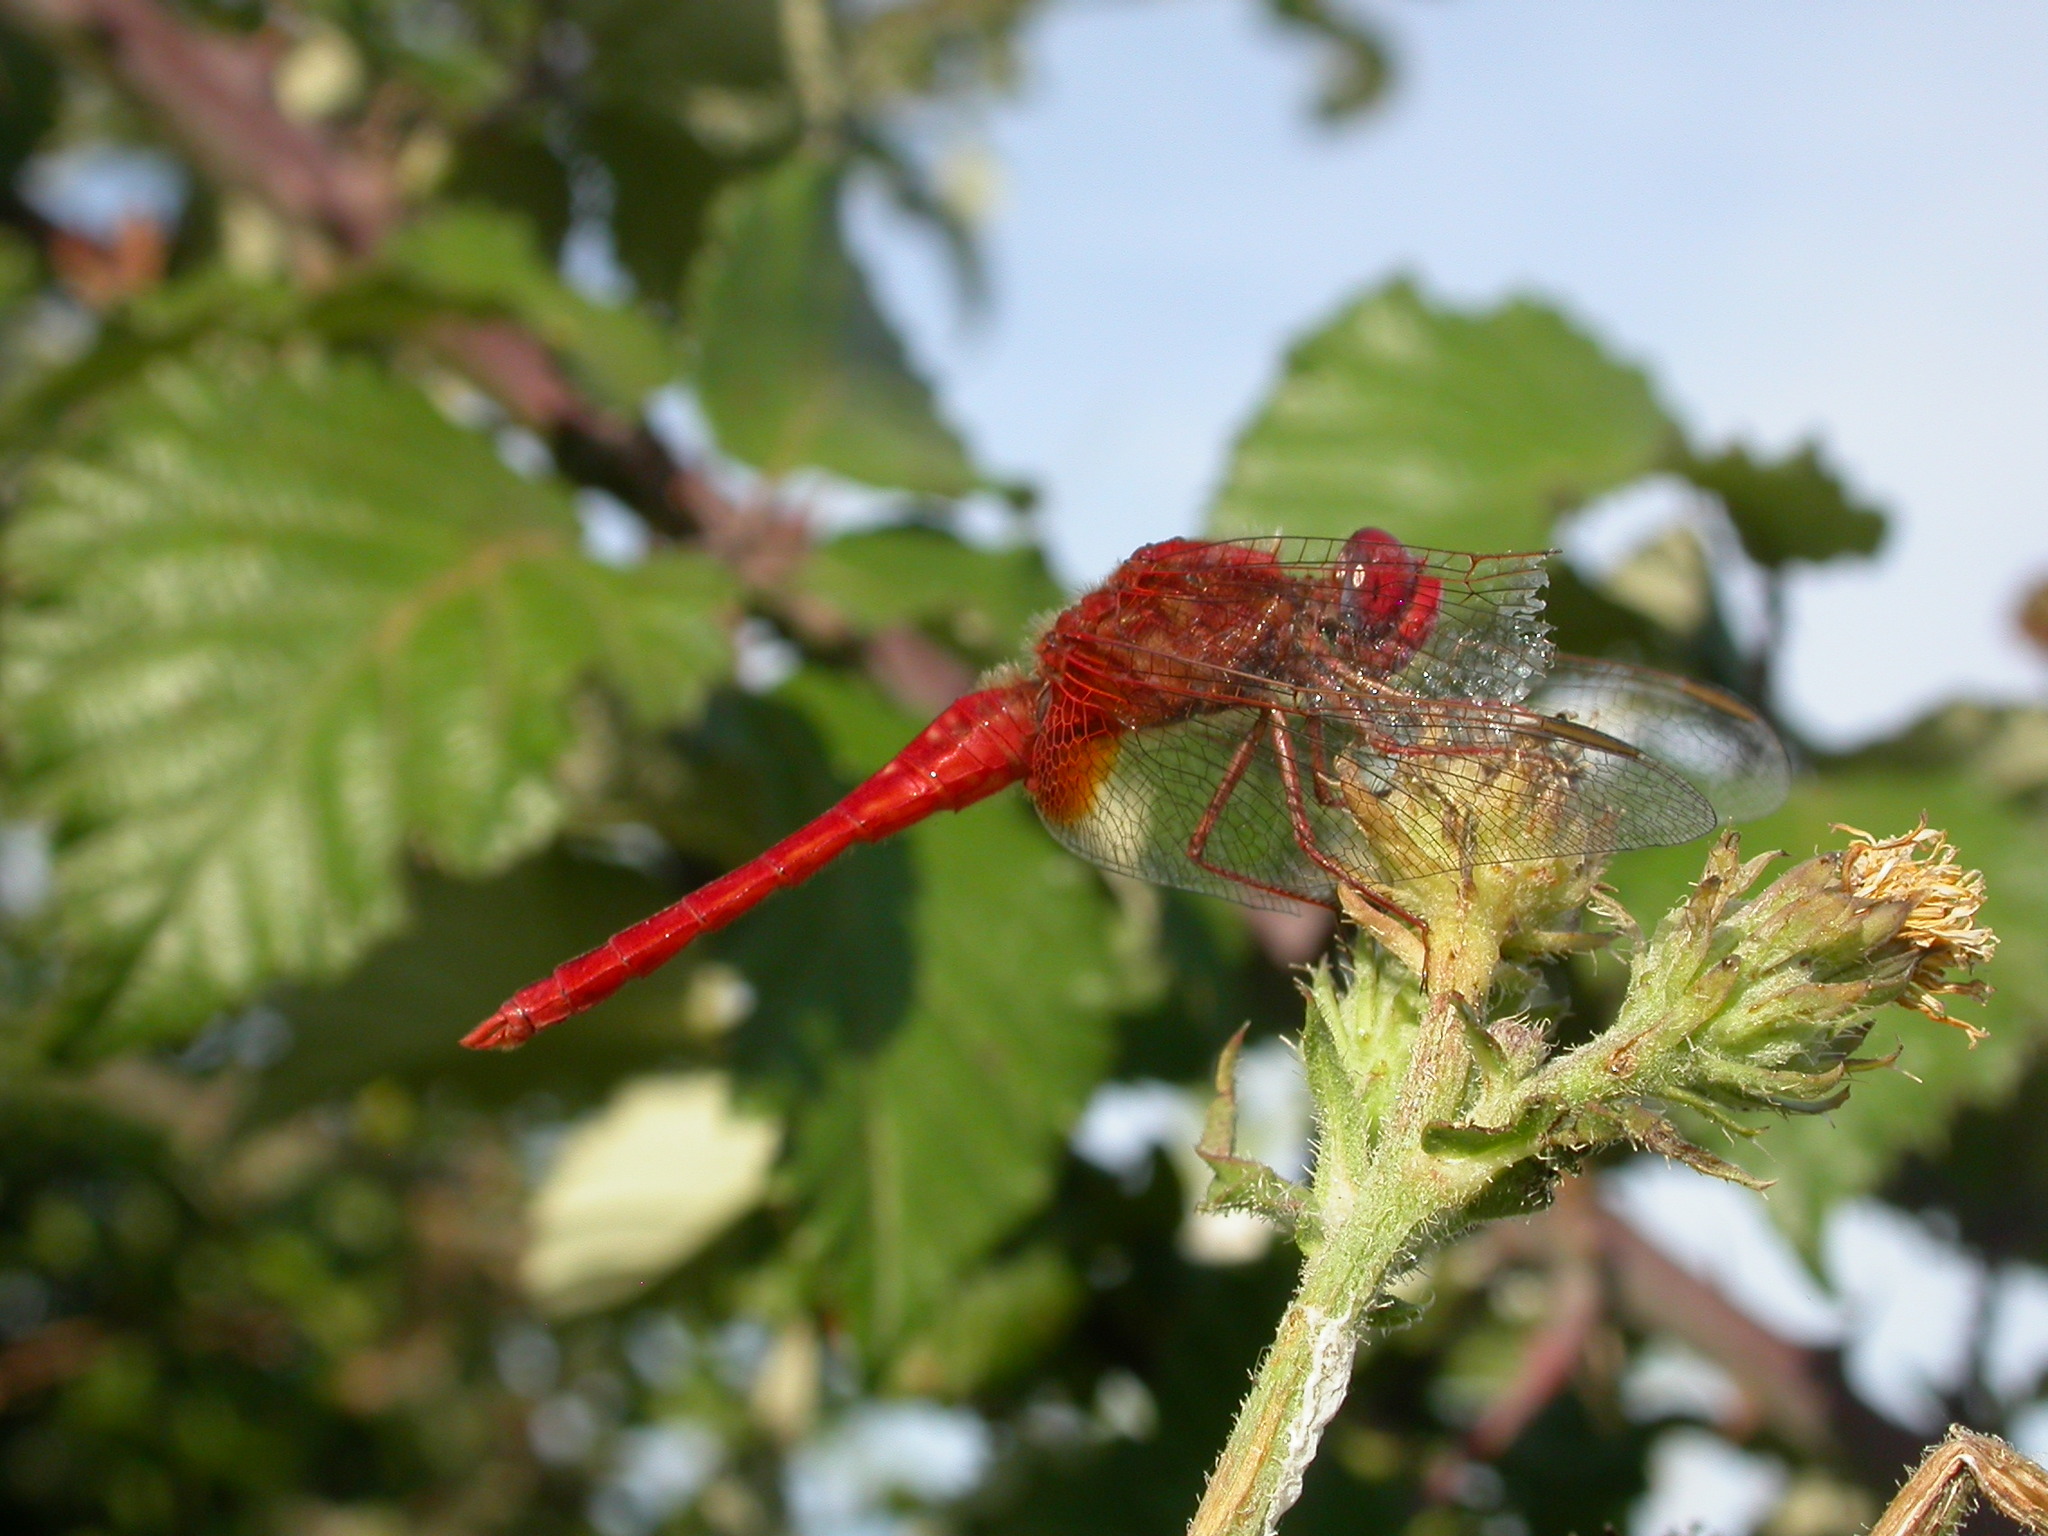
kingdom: Animalia
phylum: Arthropoda
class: Insecta
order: Odonata
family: Libellulidae
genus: Crocothemis
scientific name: Crocothemis erythraea
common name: Scarlet dragonfly
